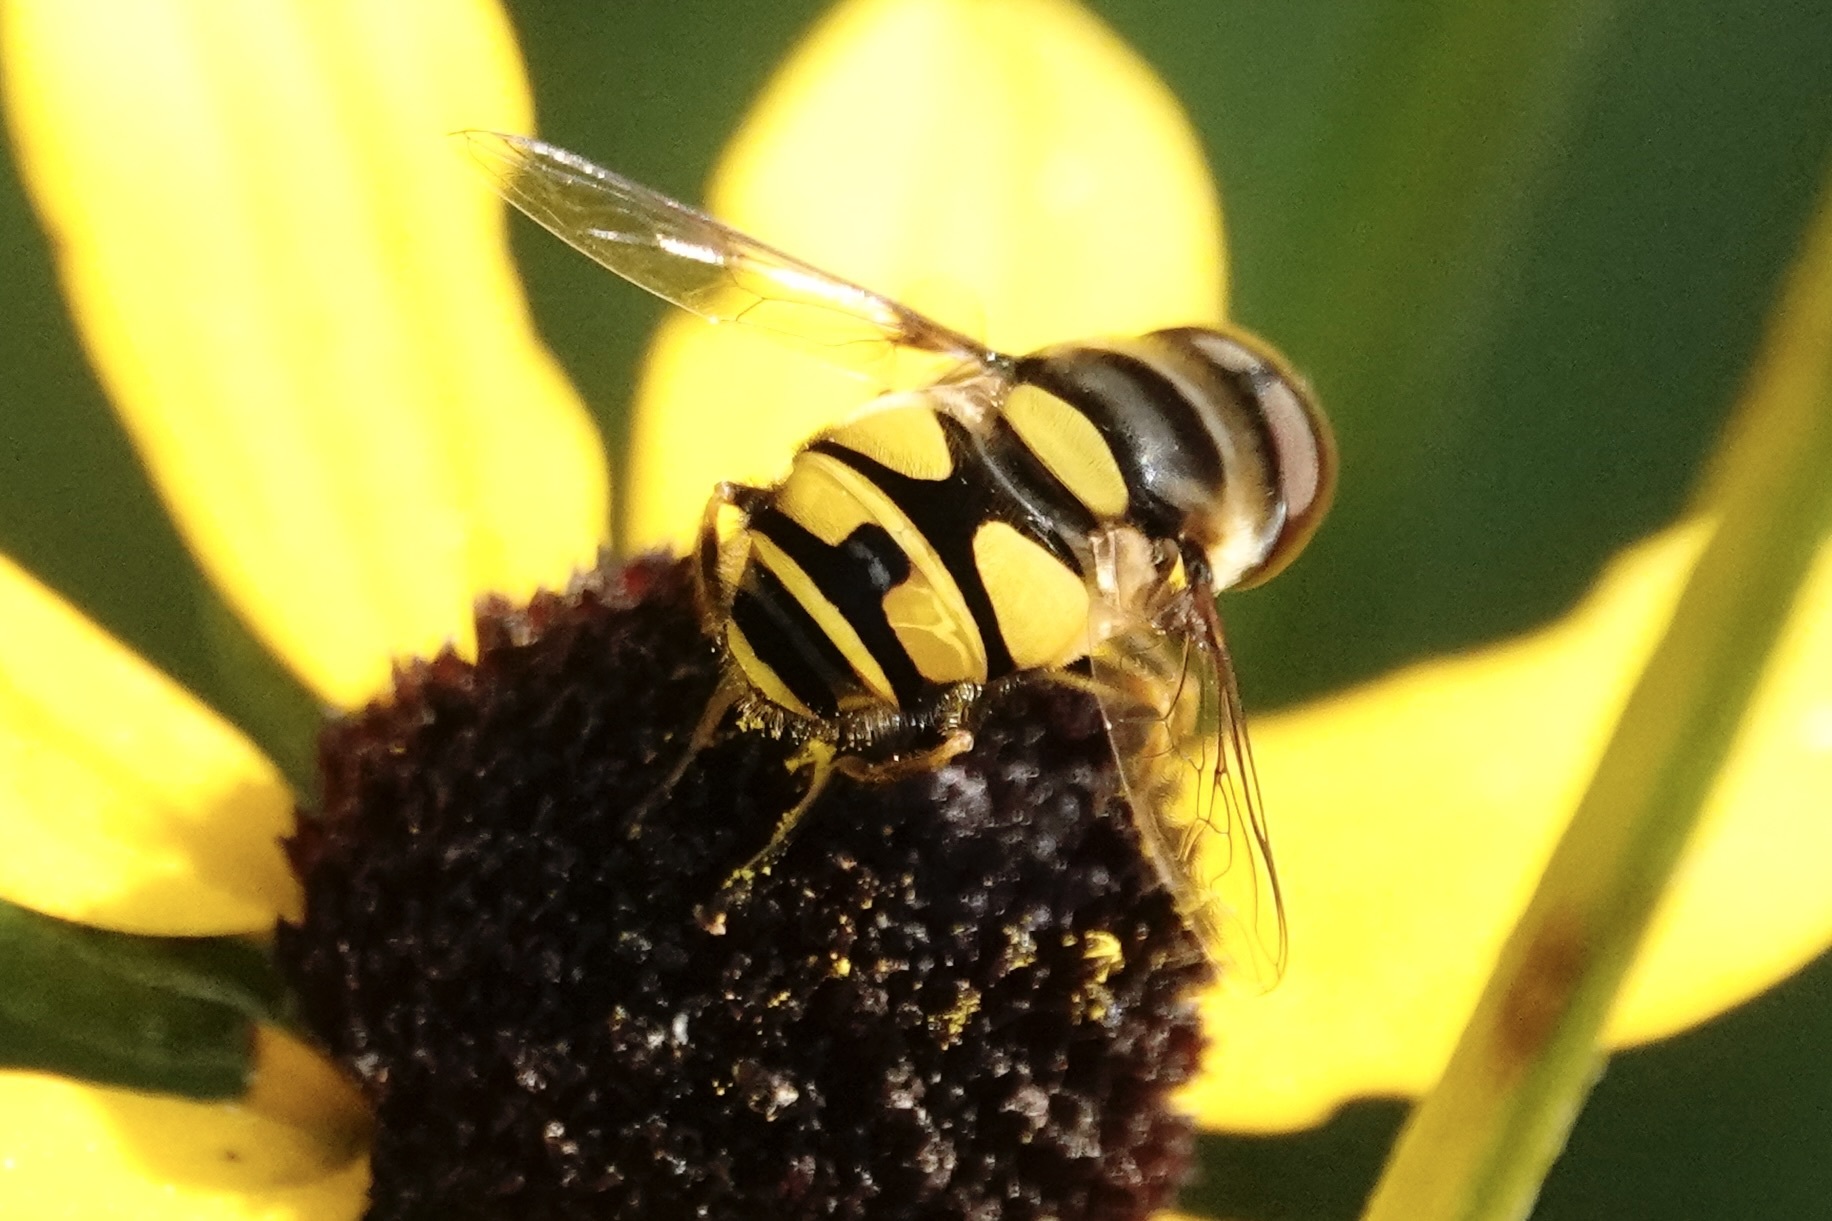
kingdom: Animalia
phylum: Arthropoda
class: Insecta
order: Diptera
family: Syrphidae
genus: Eristalis
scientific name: Eristalis transversa
